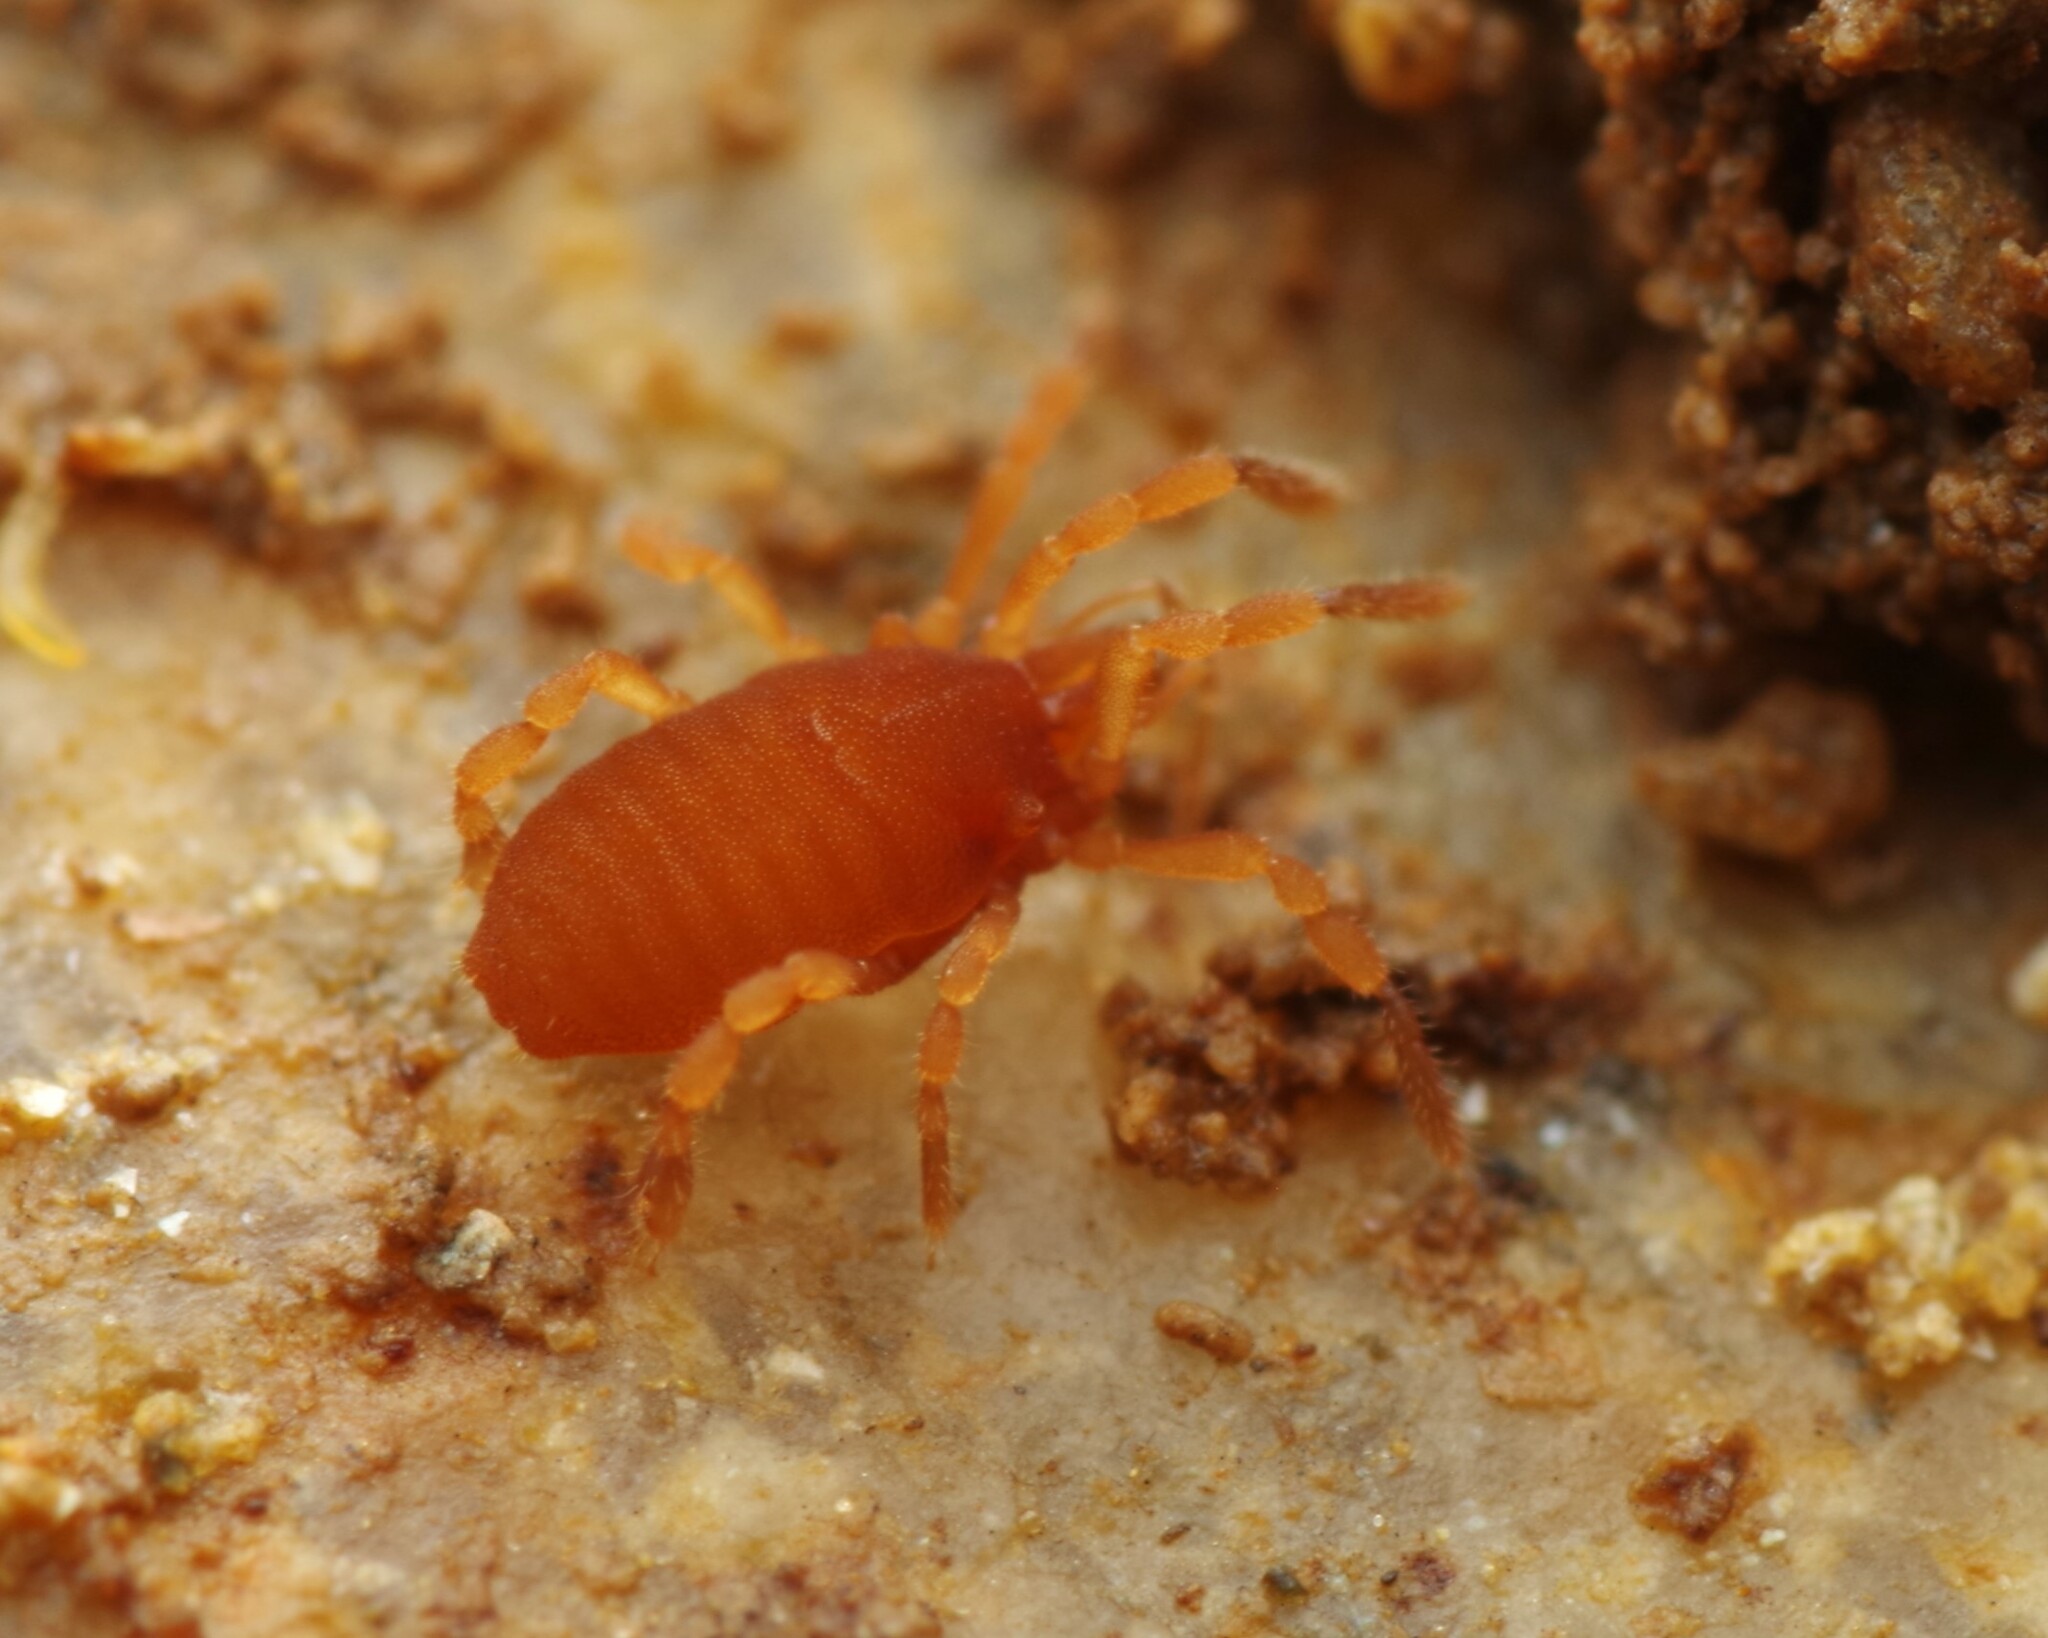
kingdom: Animalia
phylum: Arthropoda
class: Arachnida
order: Opiliones
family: Sironidae
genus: Siro
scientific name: Siro rubens
